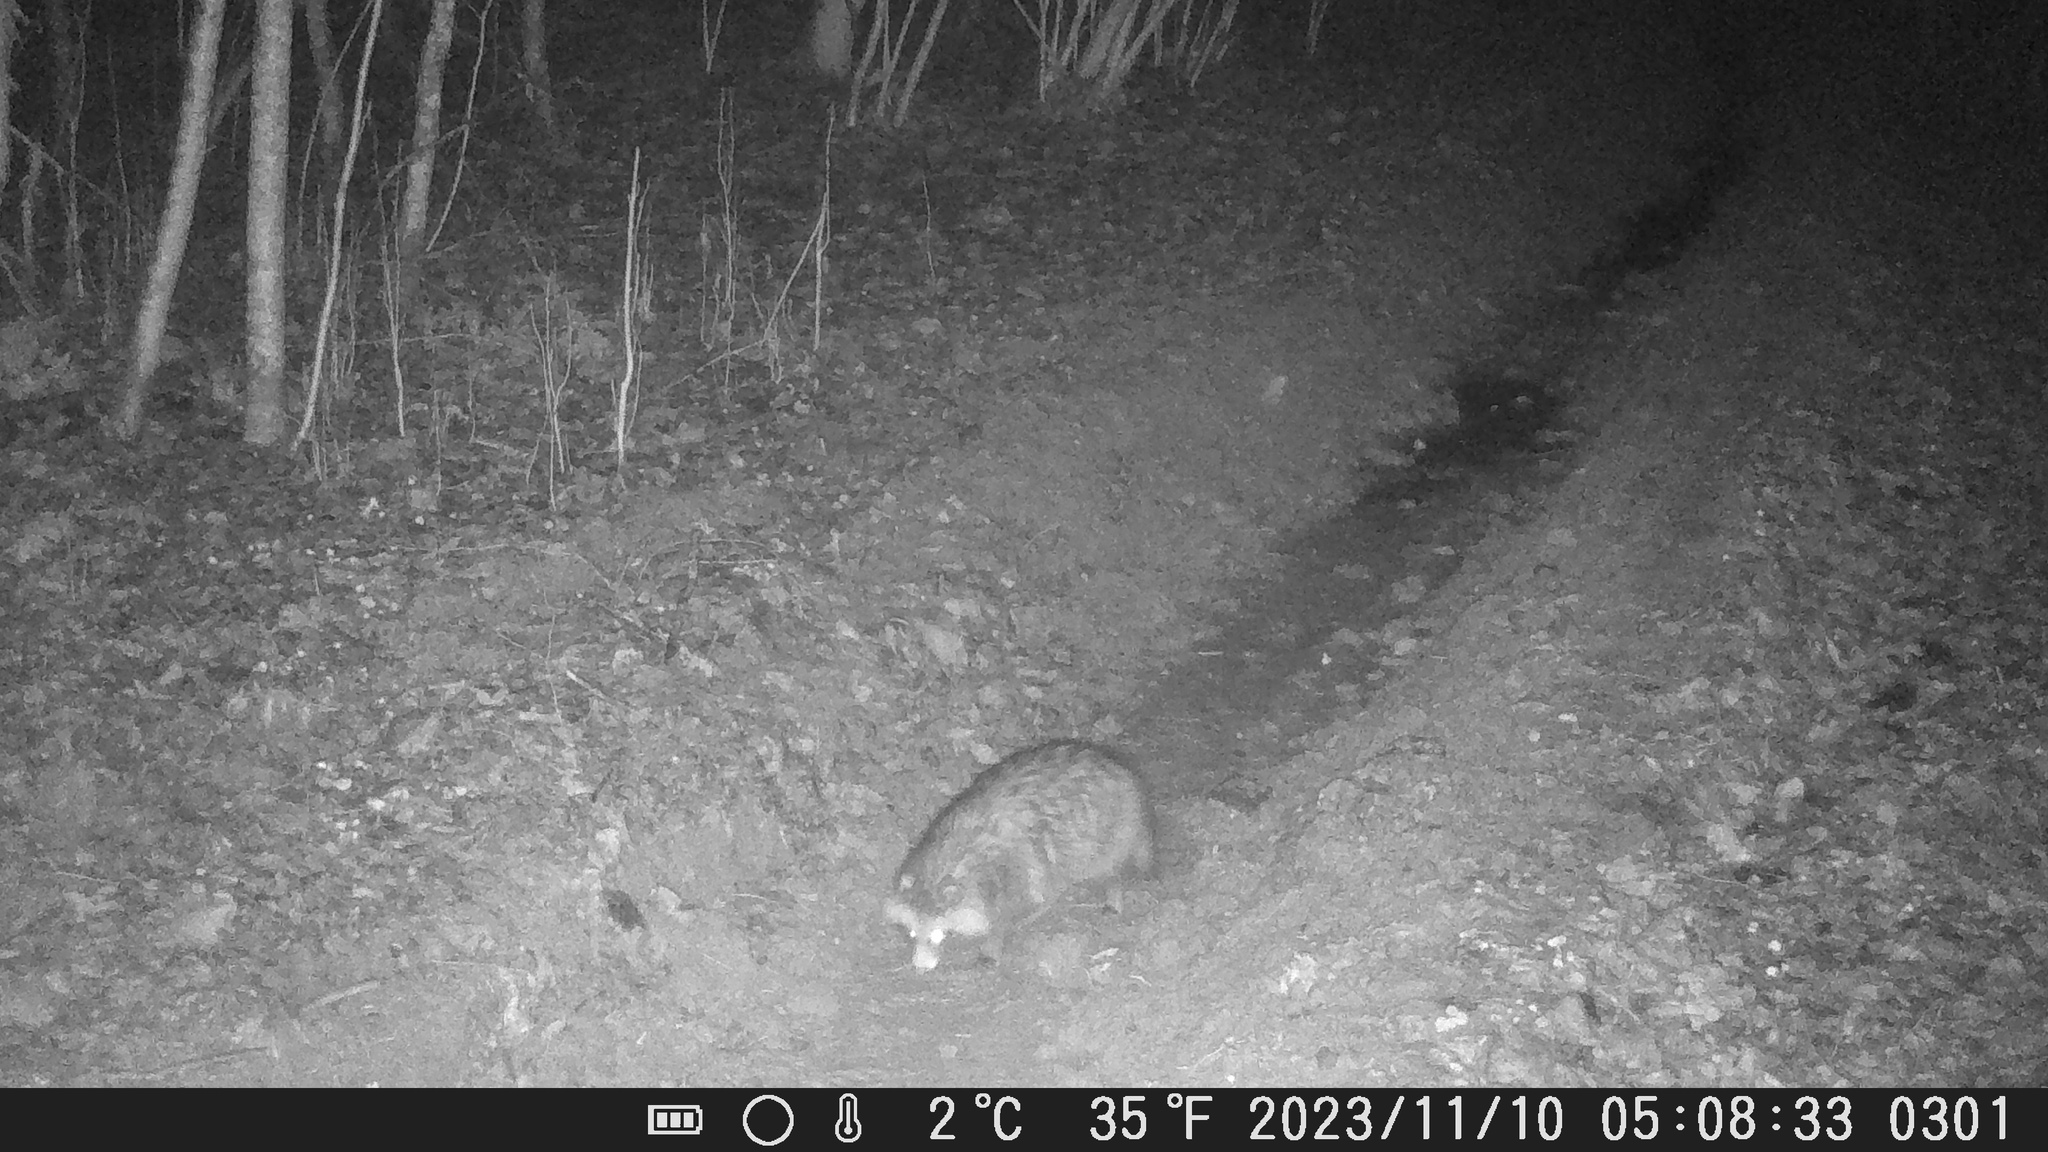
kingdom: Animalia
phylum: Chordata
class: Mammalia
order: Carnivora
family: Canidae
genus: Nyctereutes
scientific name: Nyctereutes procyonoides
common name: Raccoon dog
